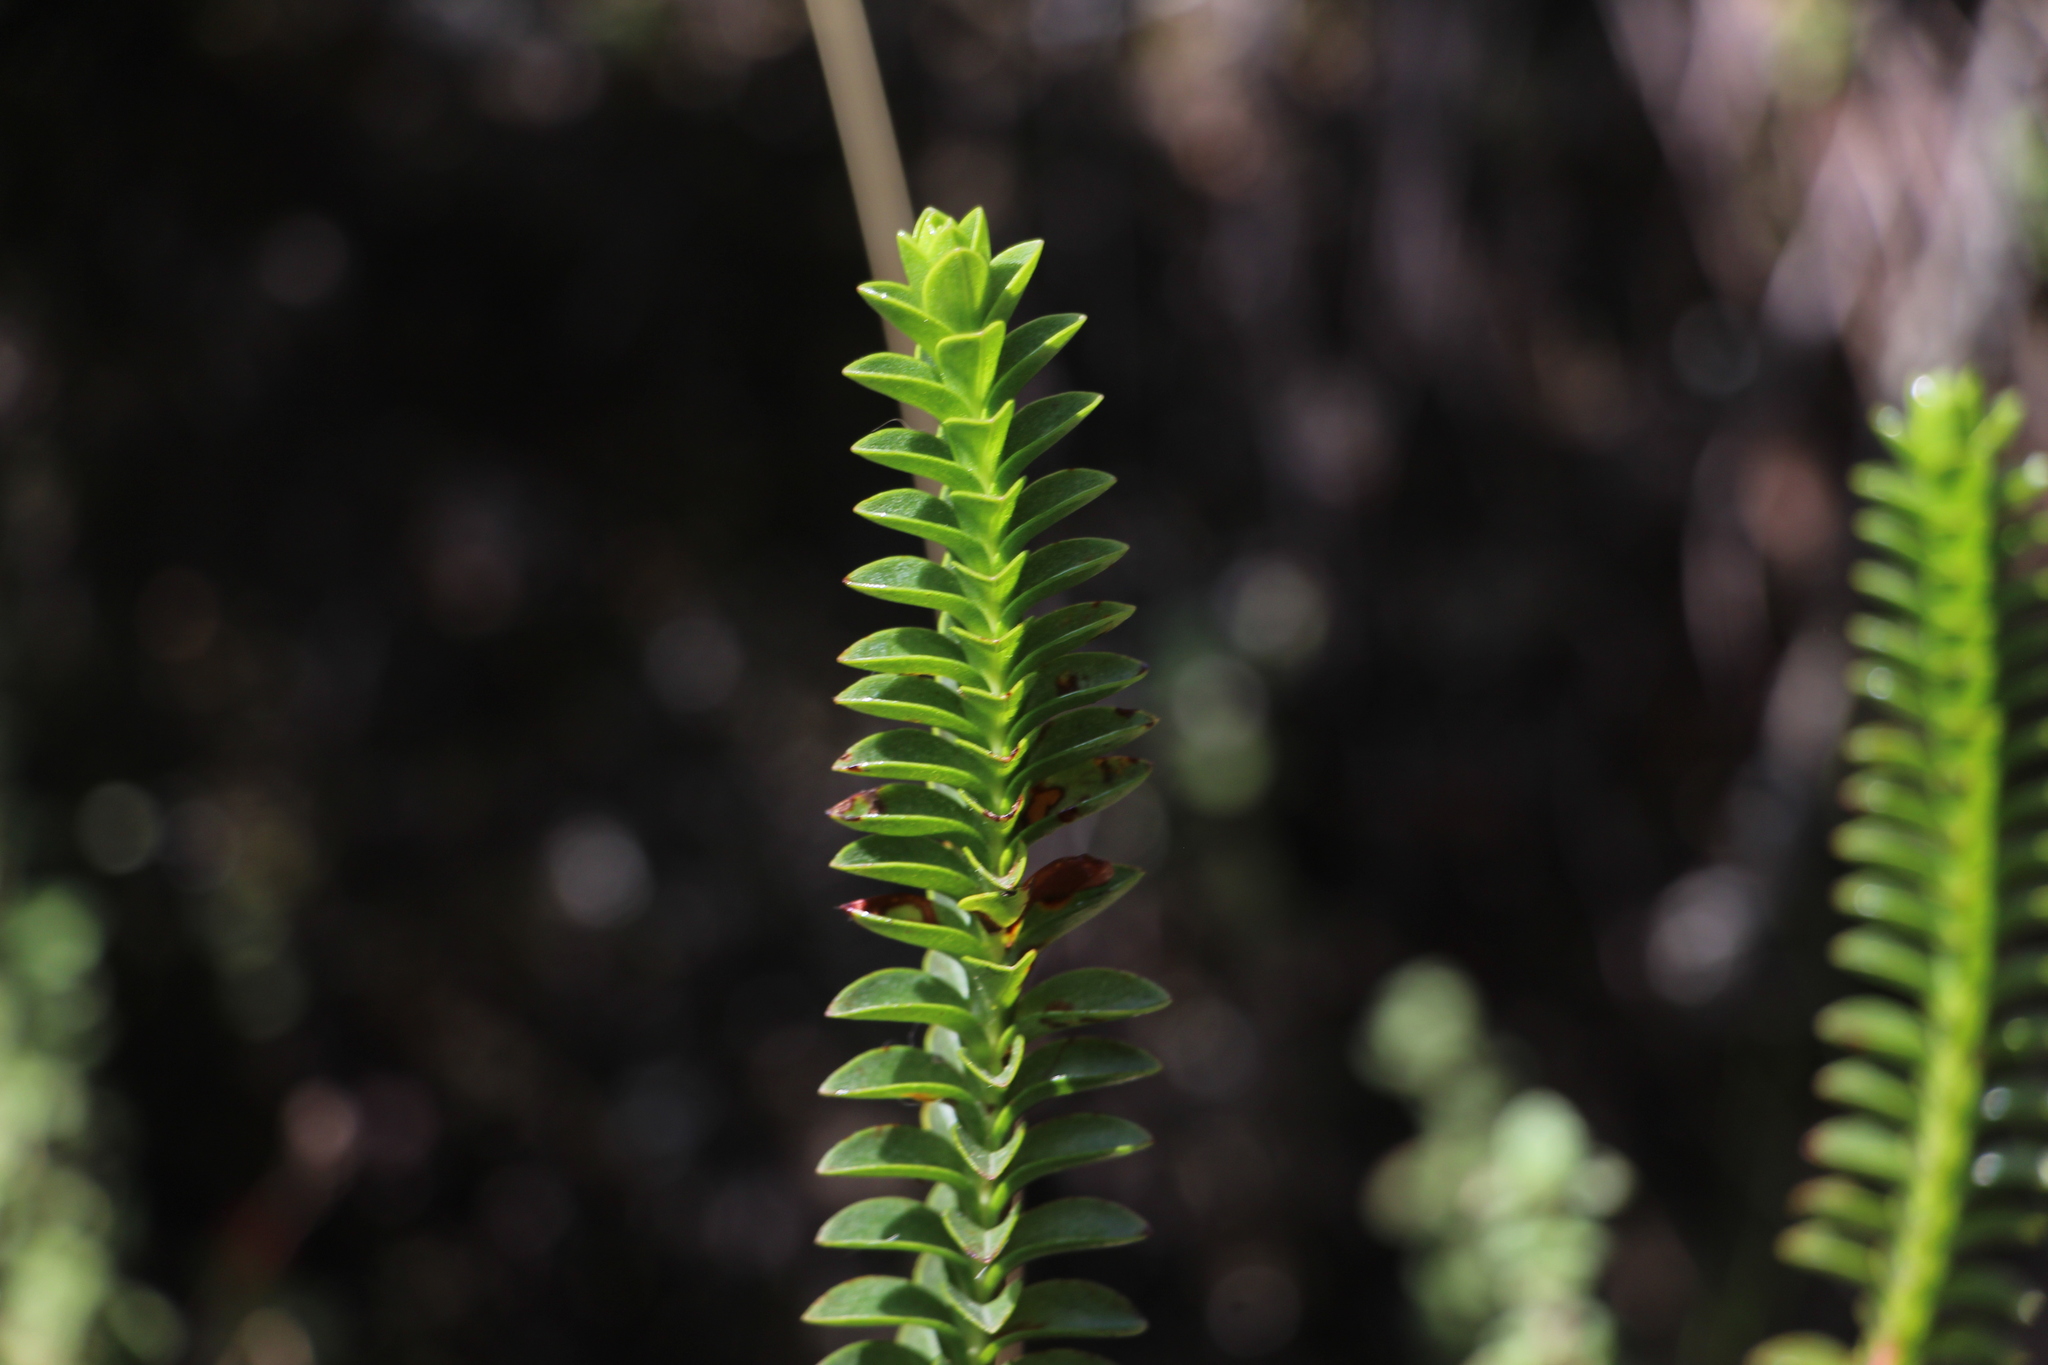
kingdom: Plantae
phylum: Tracheophyta
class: Magnoliopsida
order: Malpighiales
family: Hypericaceae
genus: Hypericum
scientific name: Hypericum mexicanum
